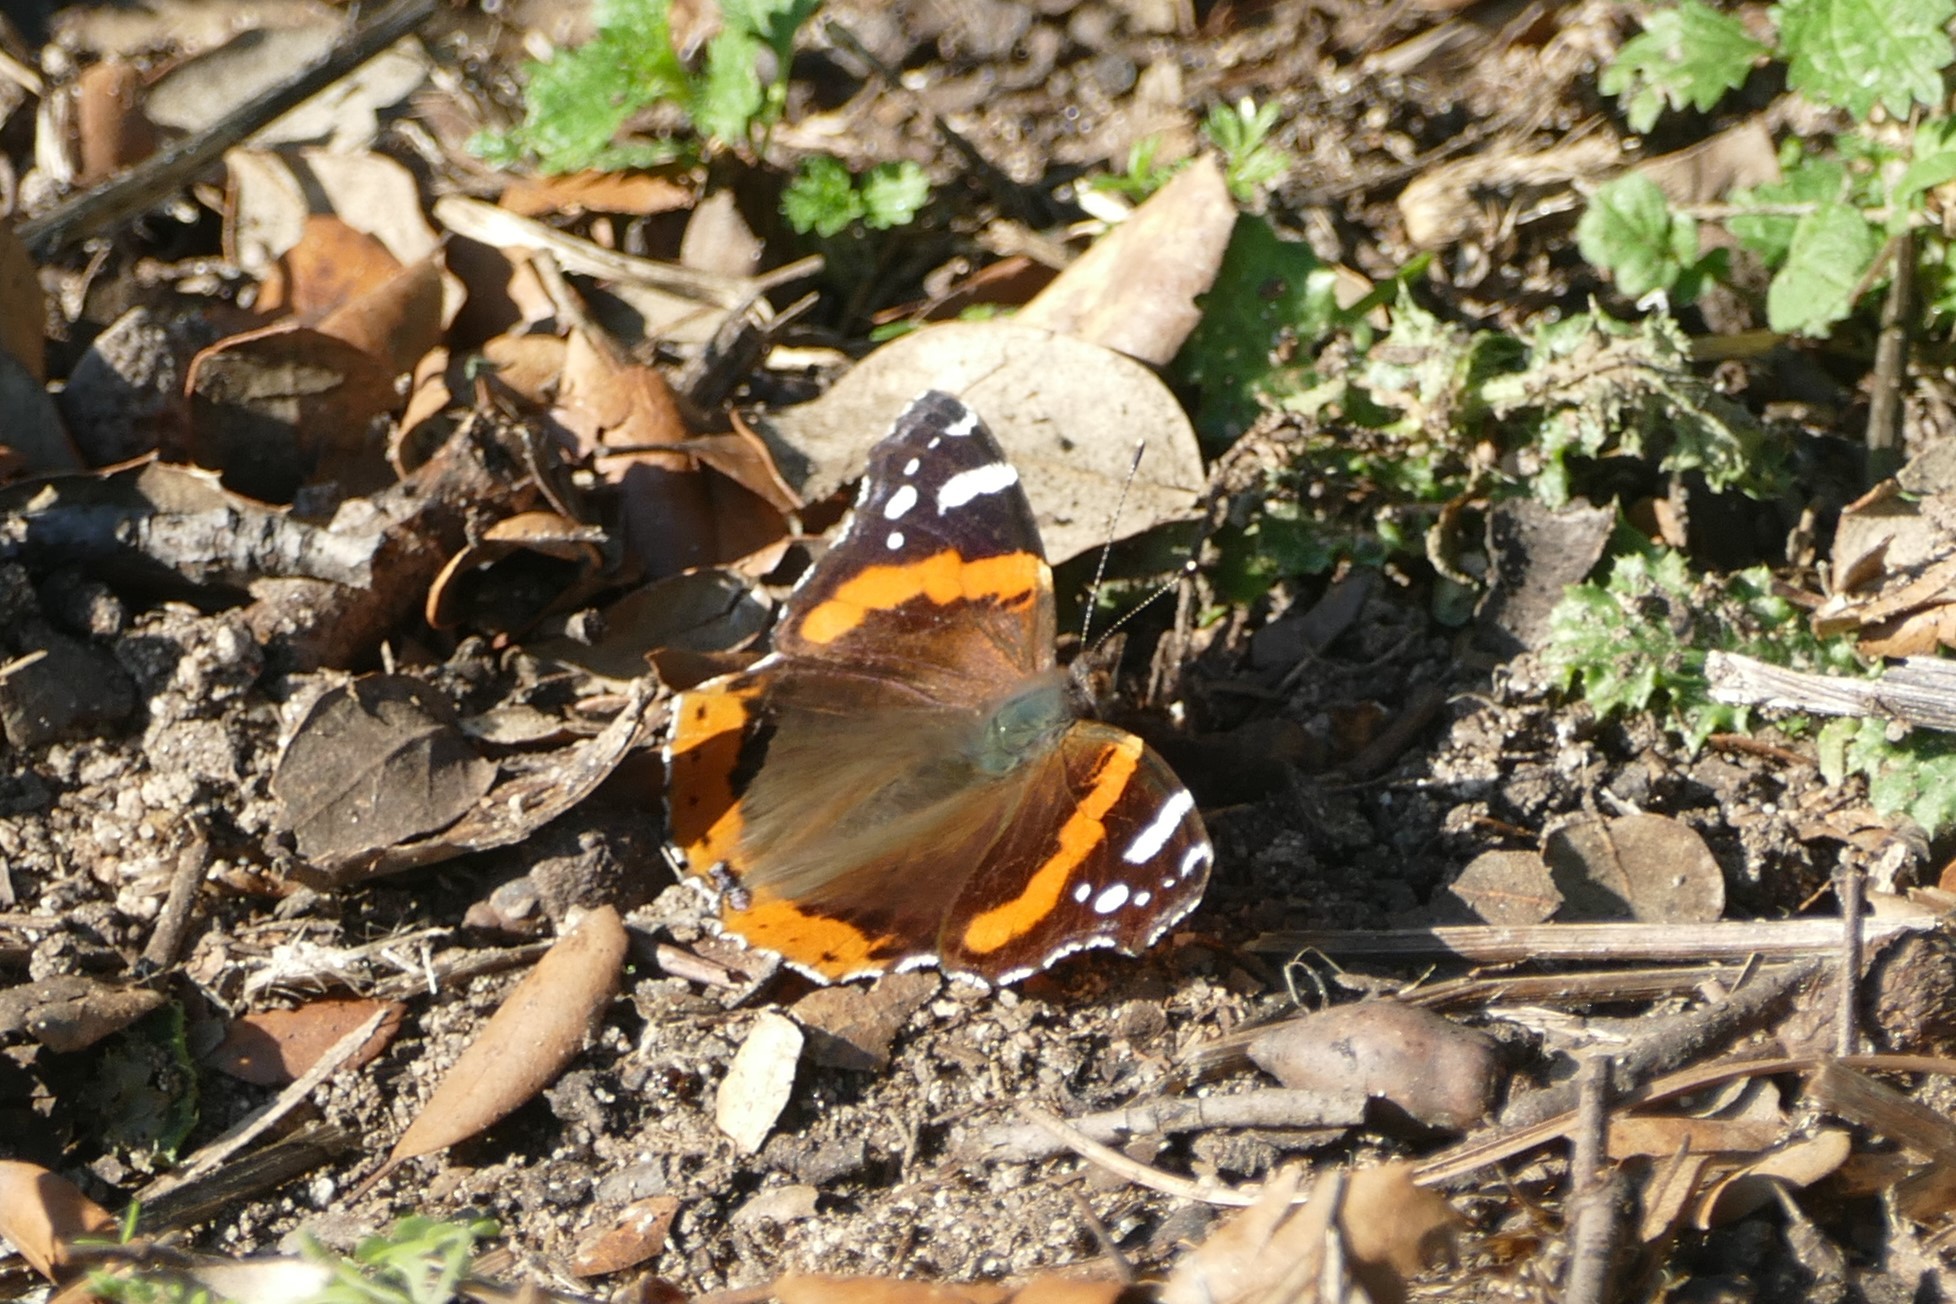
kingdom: Animalia
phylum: Arthropoda
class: Insecta
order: Lepidoptera
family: Nymphalidae
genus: Vanessa
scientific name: Vanessa atalanta
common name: Red admiral
